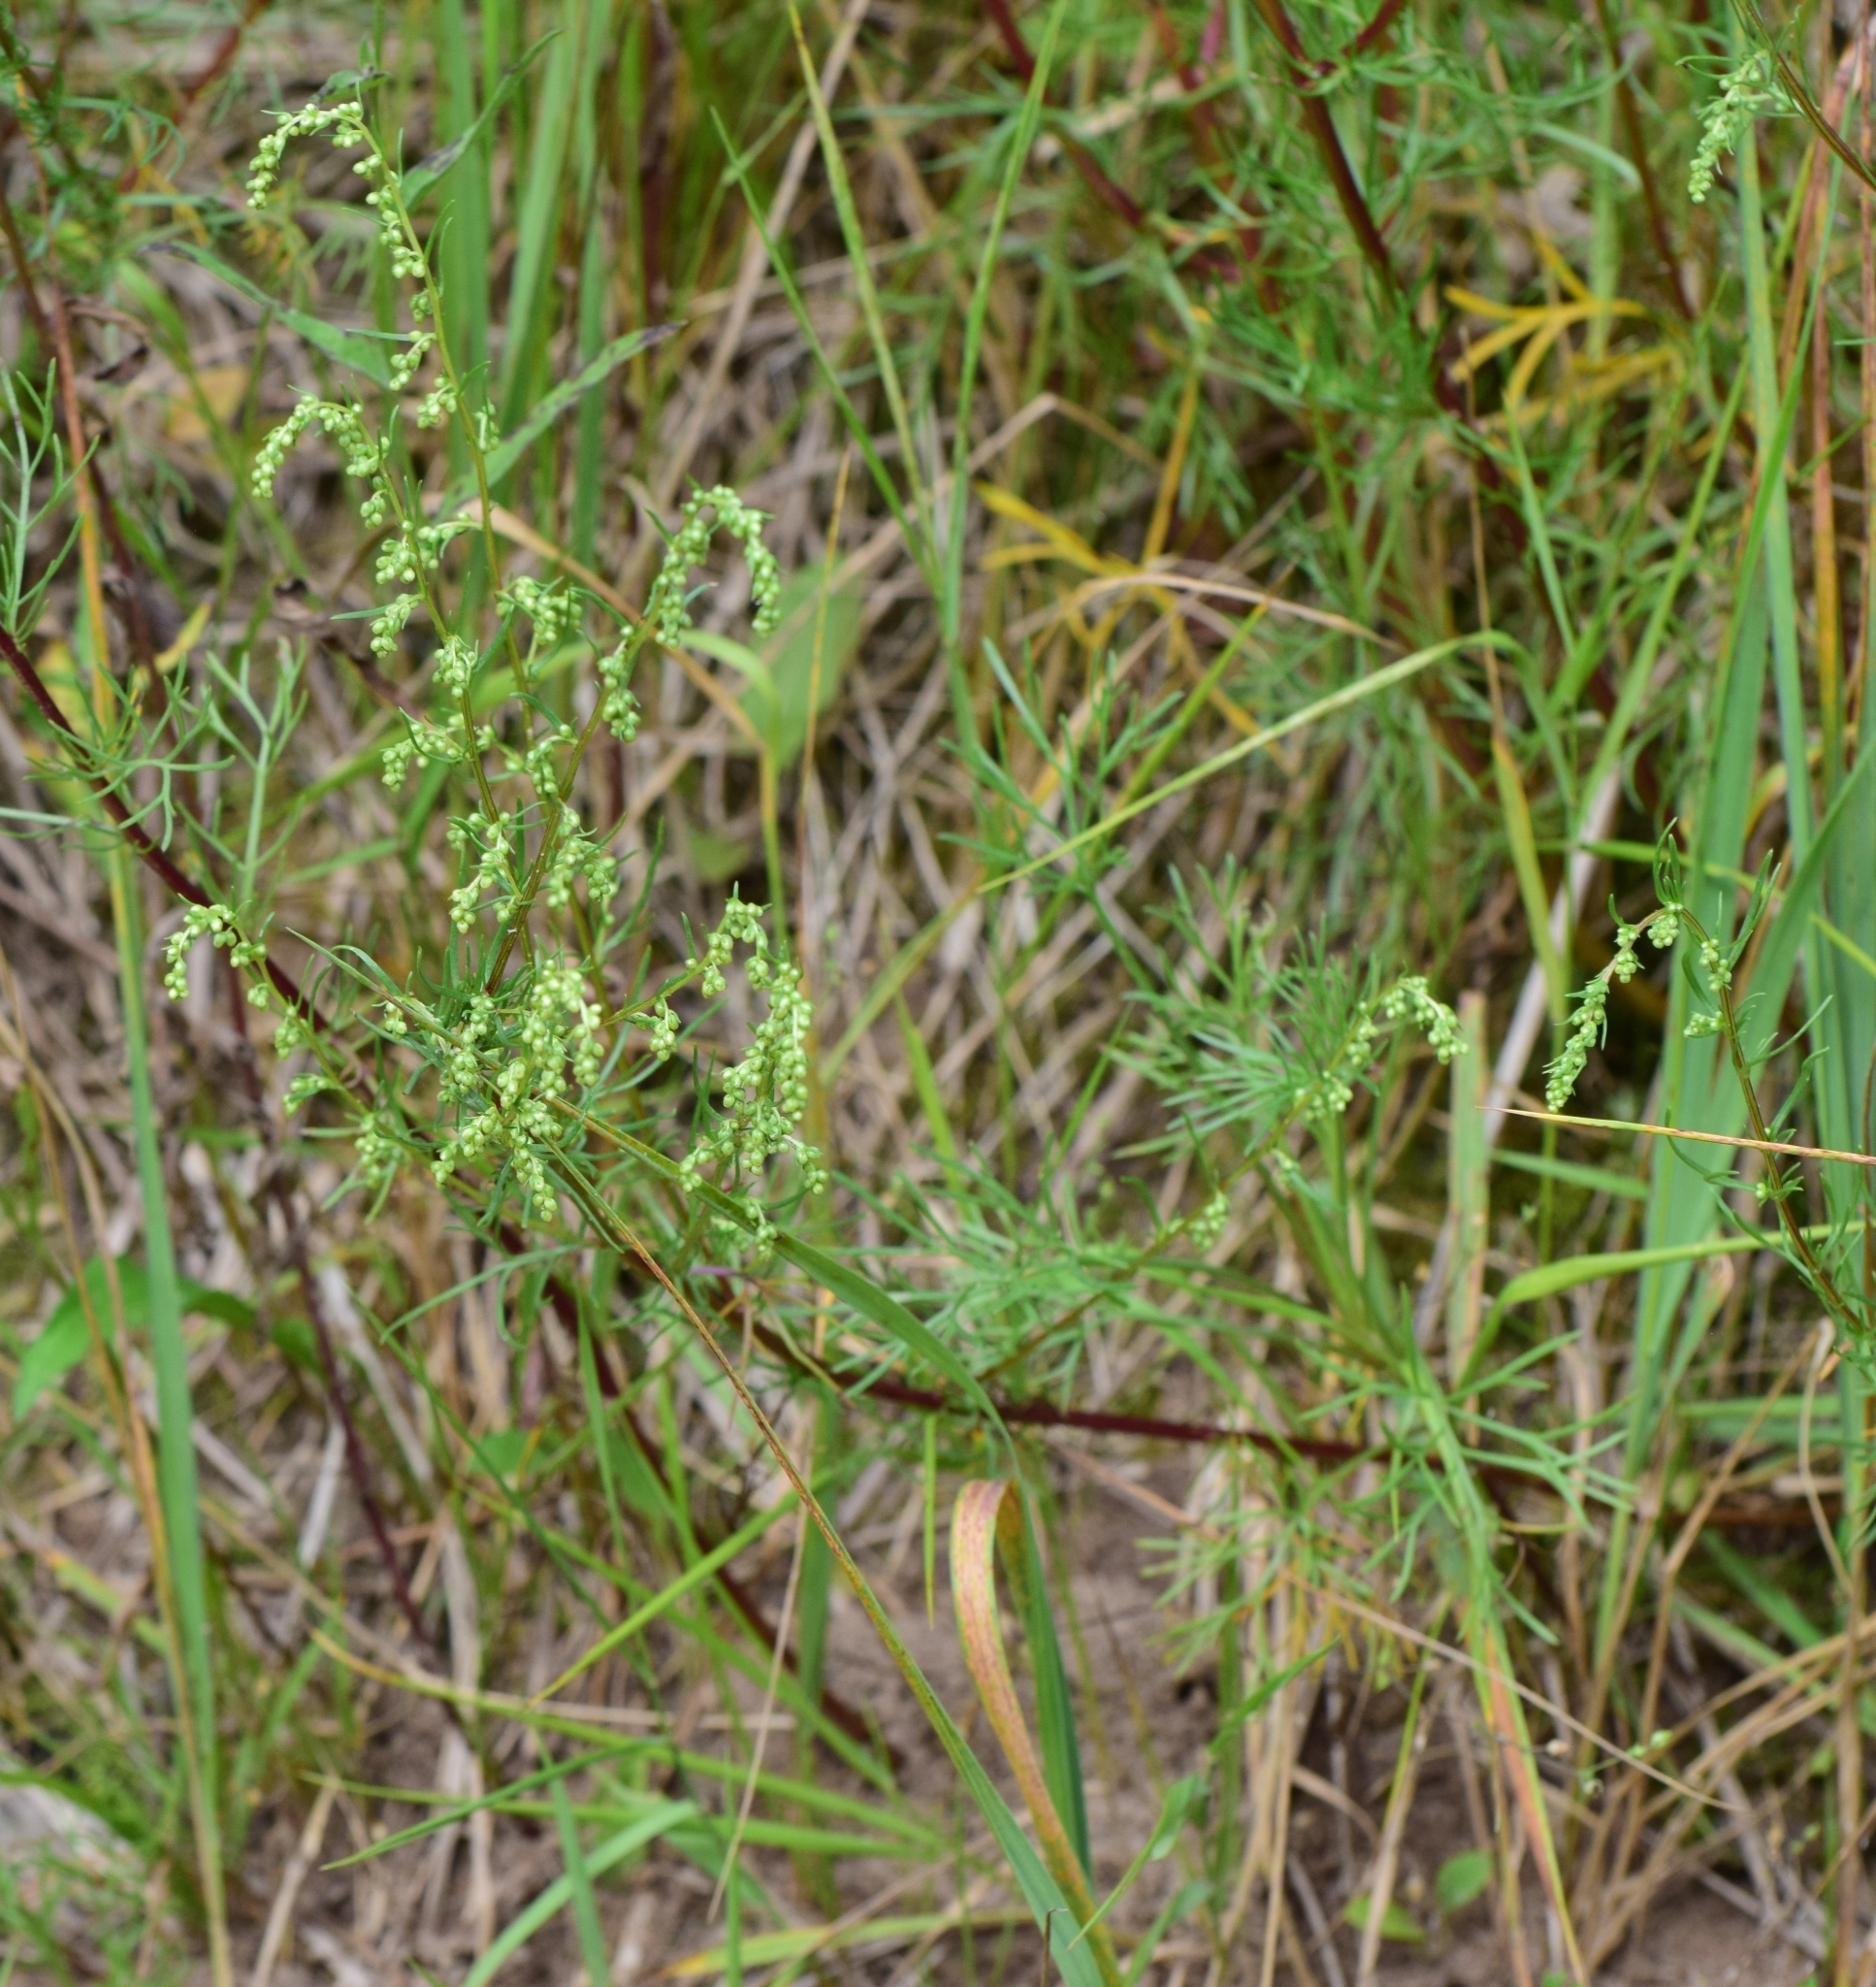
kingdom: Plantae
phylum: Tracheophyta
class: Magnoliopsida
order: Asterales
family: Asteraceae
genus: Artemisia
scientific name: Artemisia campestris
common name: Field wormwood
